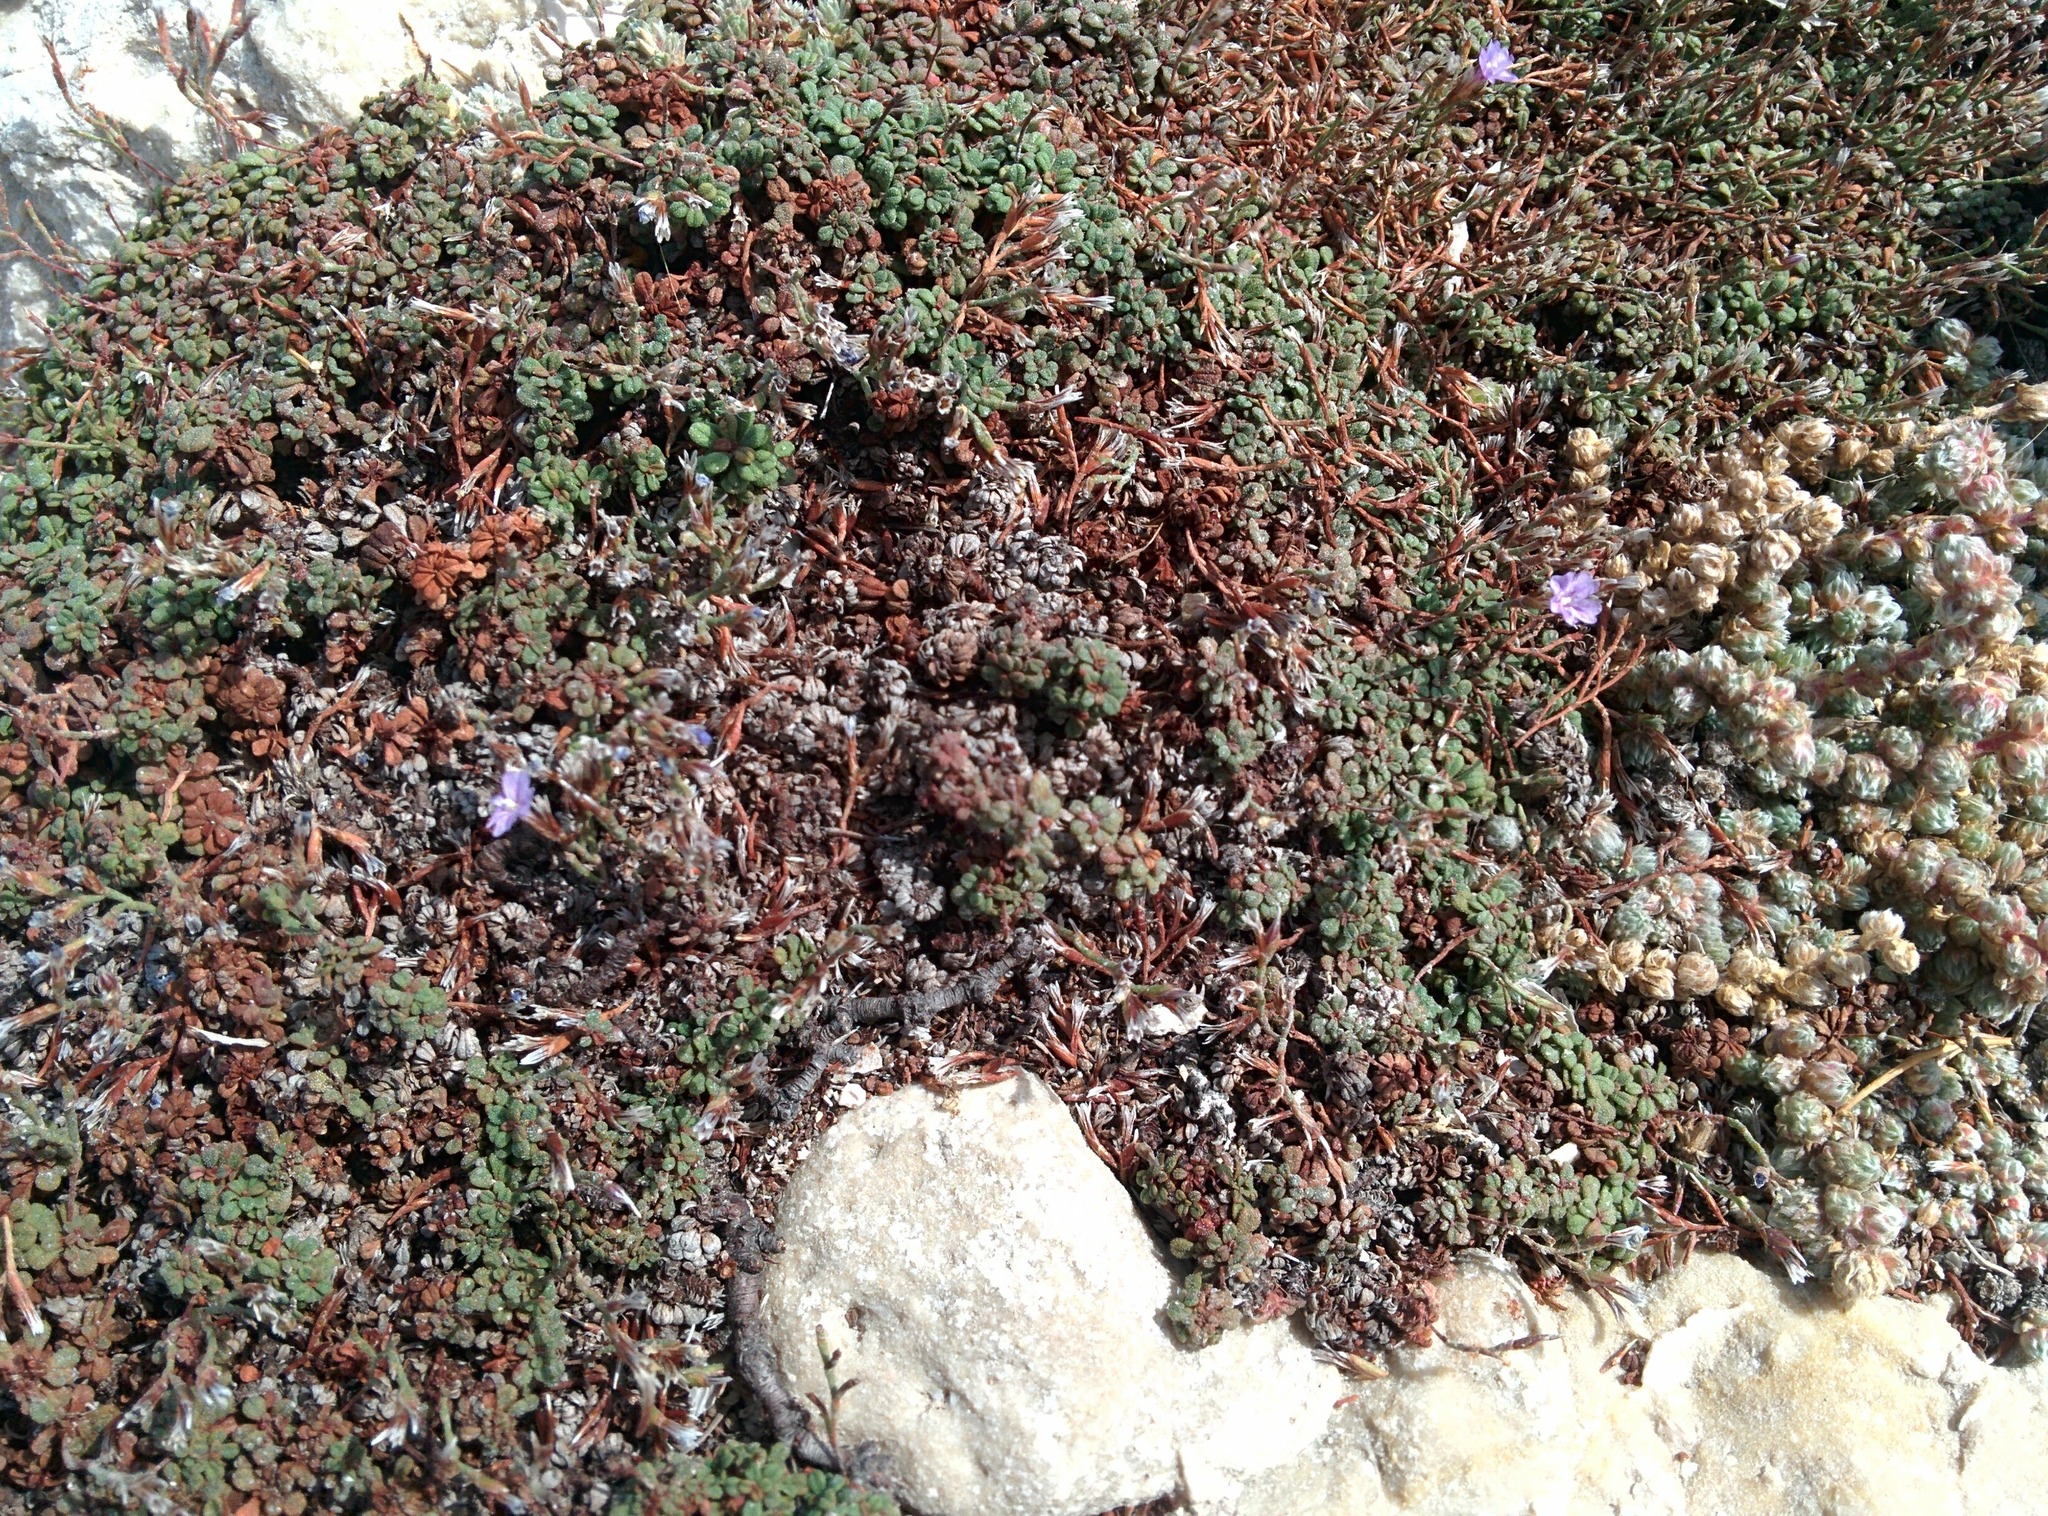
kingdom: Plantae
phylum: Tracheophyta
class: Magnoliopsida
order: Caryophyllales
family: Plumbaginaceae
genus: Limonium
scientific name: Limonium pseudominutum
